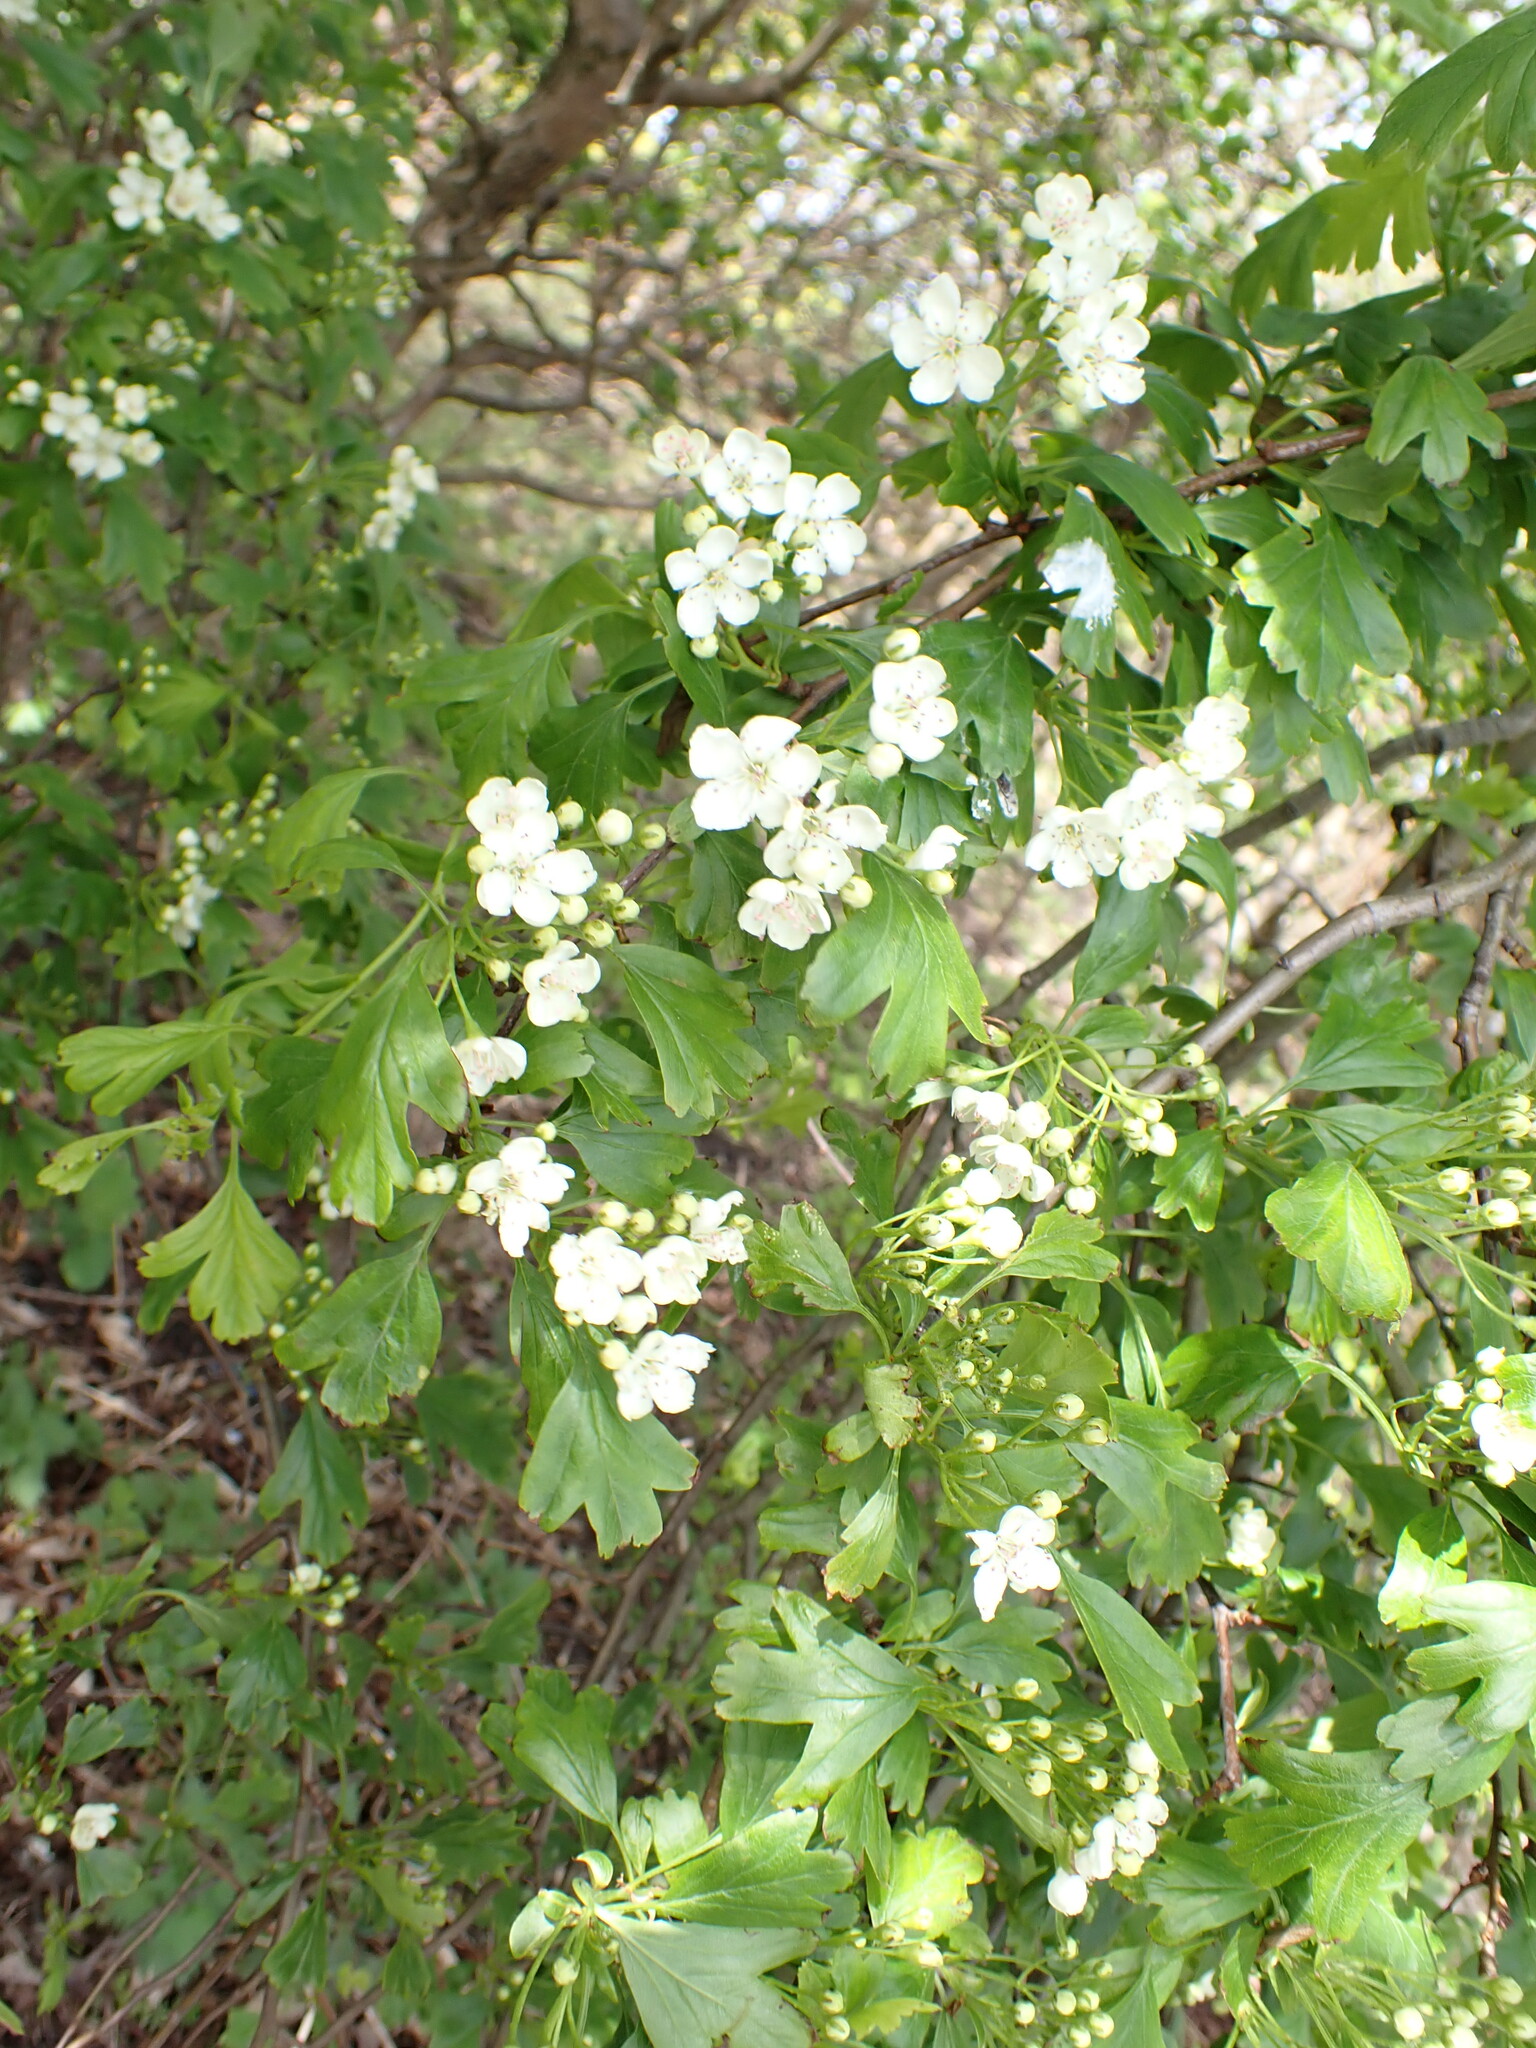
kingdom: Plantae
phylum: Tracheophyta
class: Magnoliopsida
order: Rosales
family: Rosaceae
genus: Crataegus
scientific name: Crataegus monogyna
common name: Hawthorn
